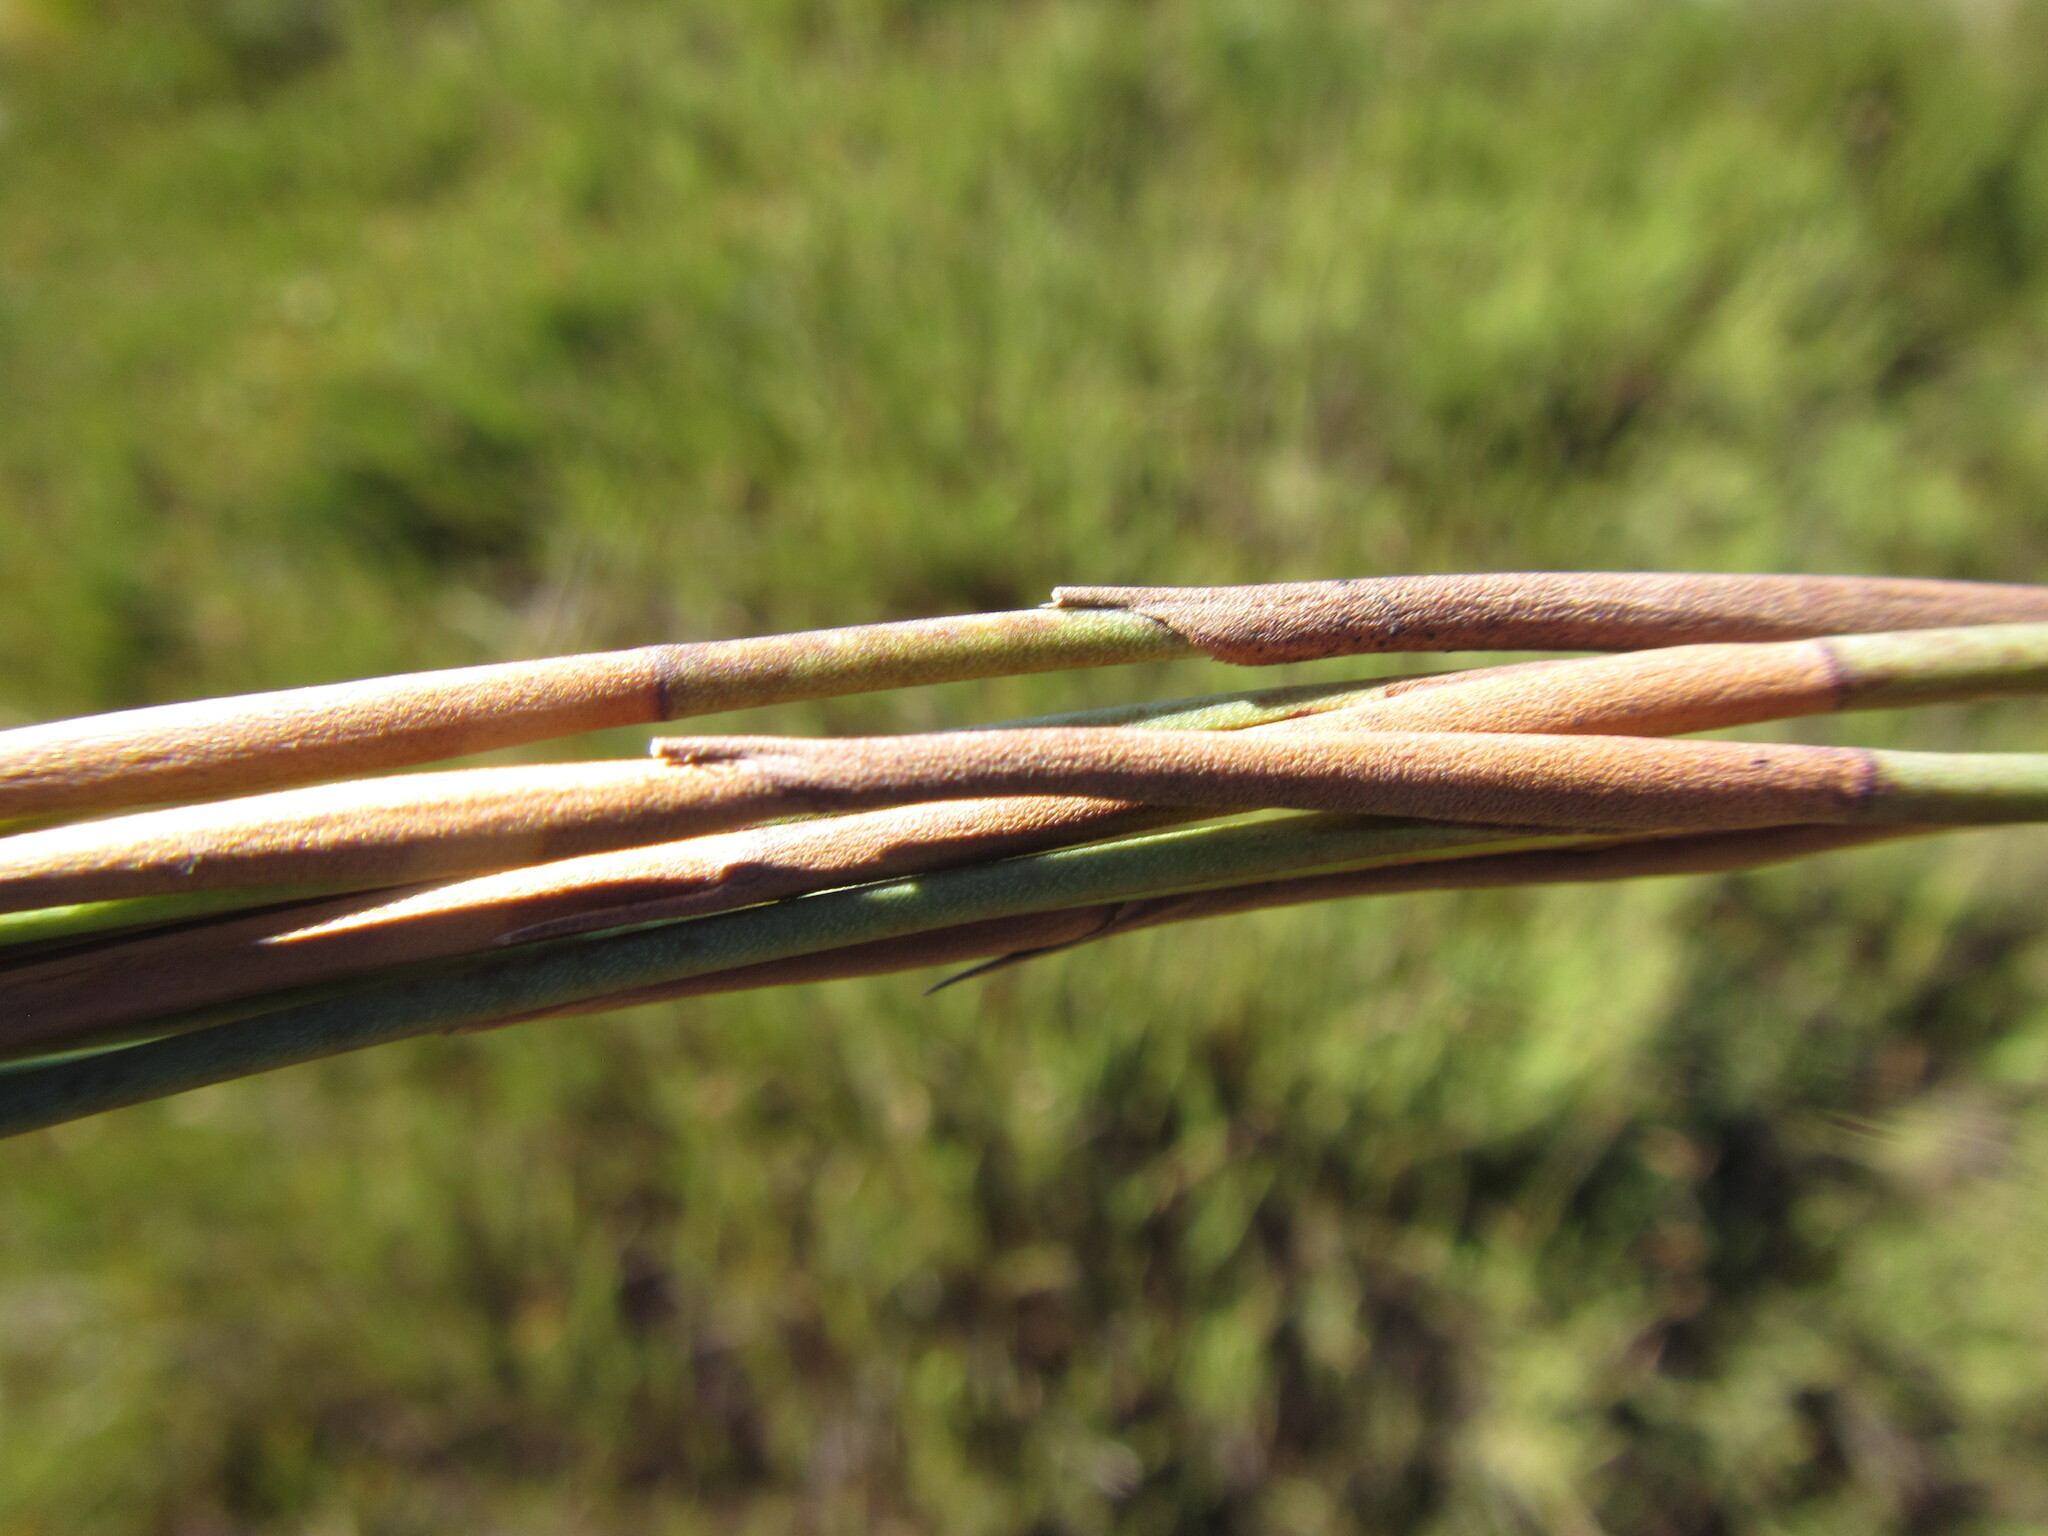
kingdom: Plantae
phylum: Tracheophyta
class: Liliopsida
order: Poales
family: Restionaceae
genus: Elegia
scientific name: Elegia neesii
